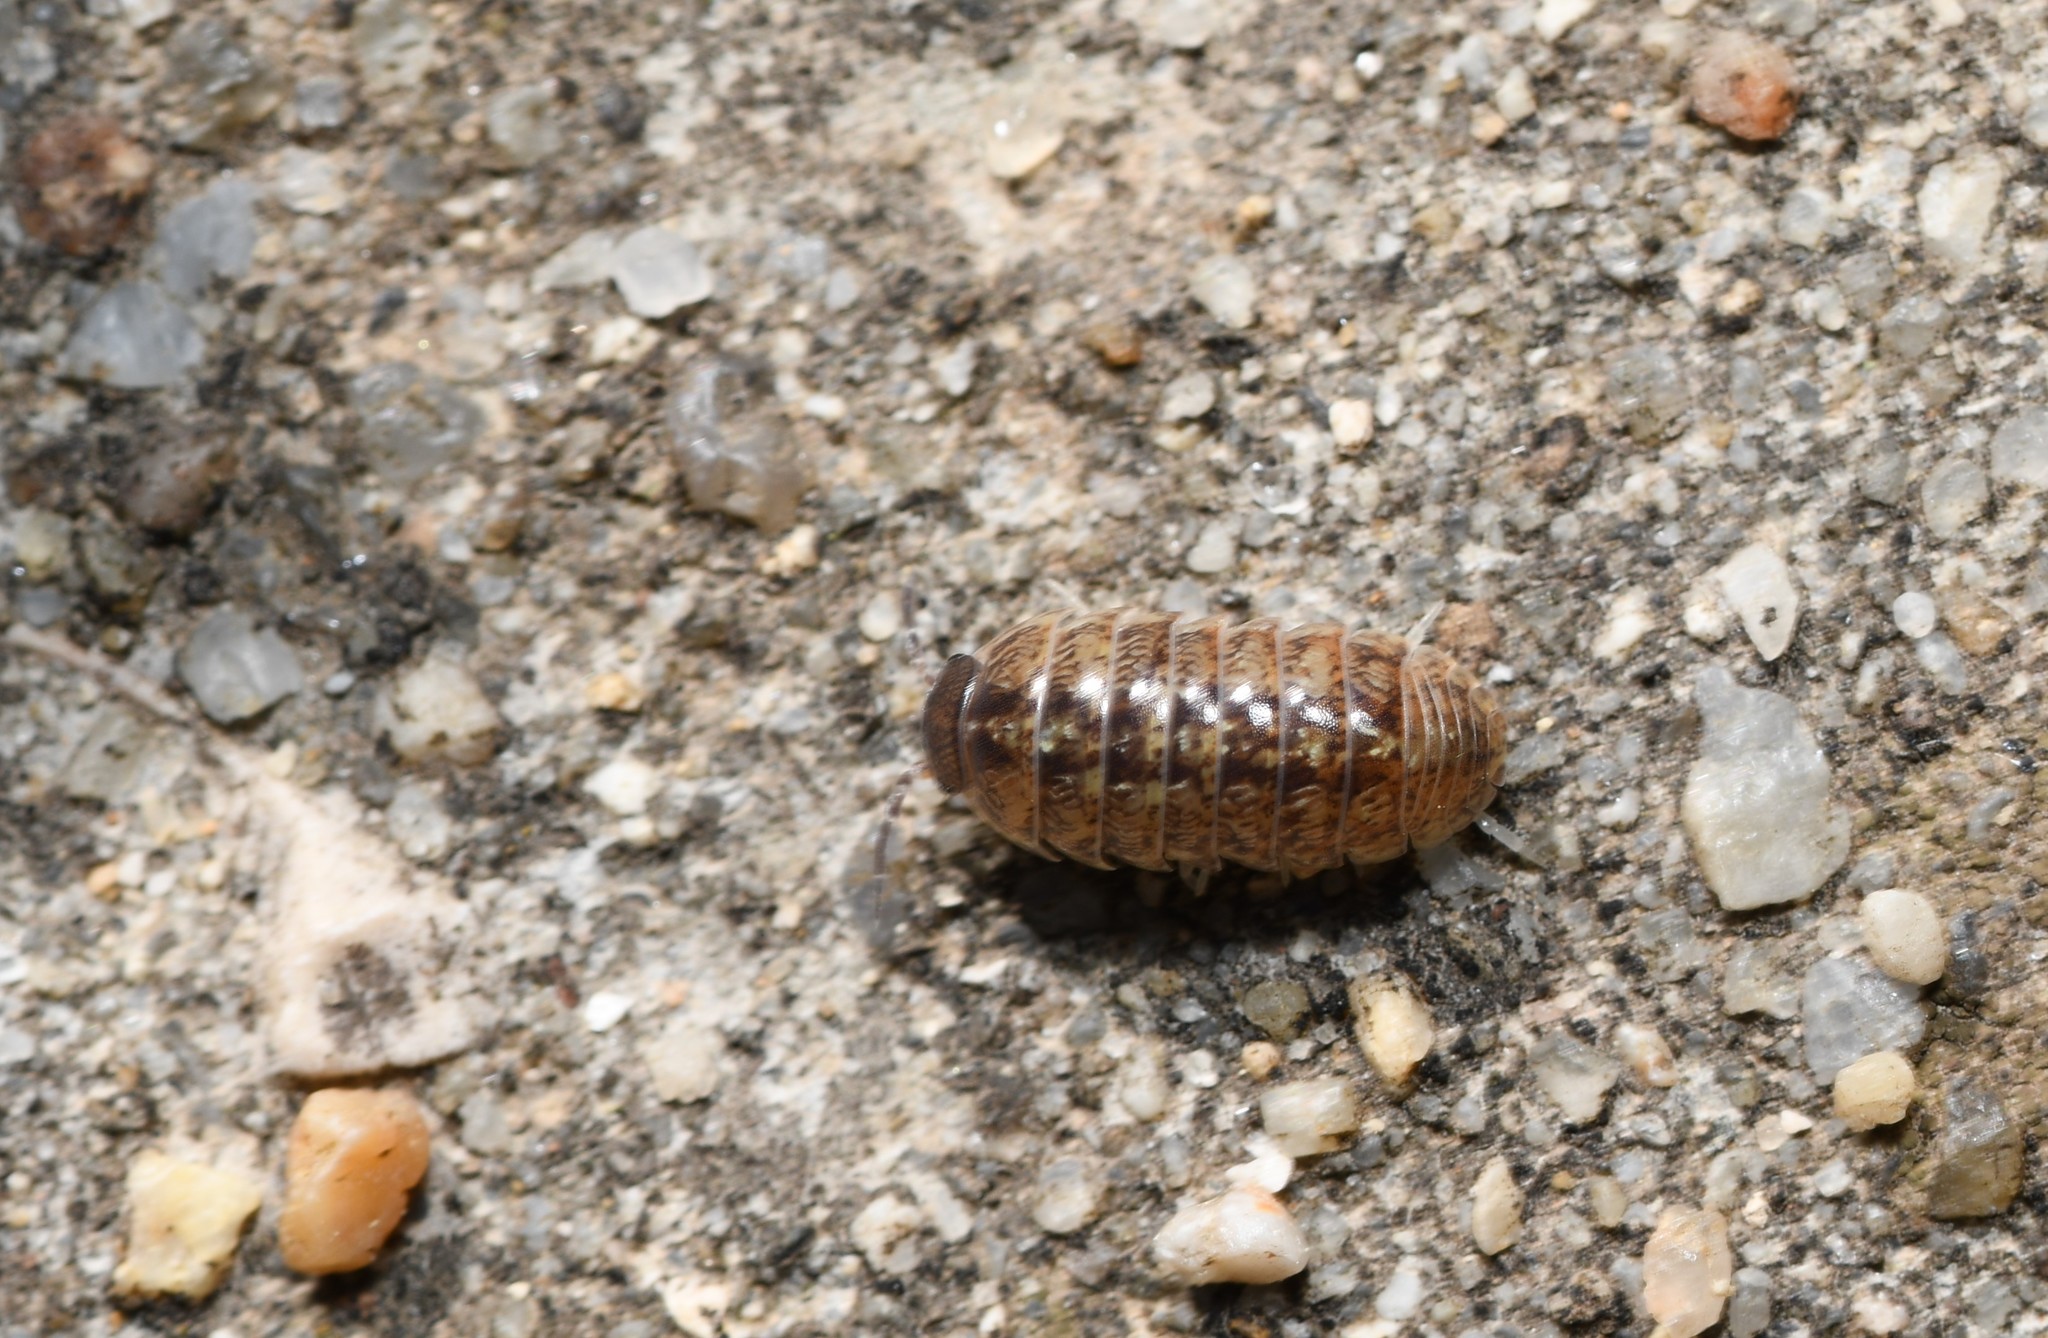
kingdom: Animalia
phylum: Arthropoda
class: Malacostraca
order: Isopoda
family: Armadillidiidae
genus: Armadillidium
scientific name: Armadillidium vulgare
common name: Common pill woodlouse
